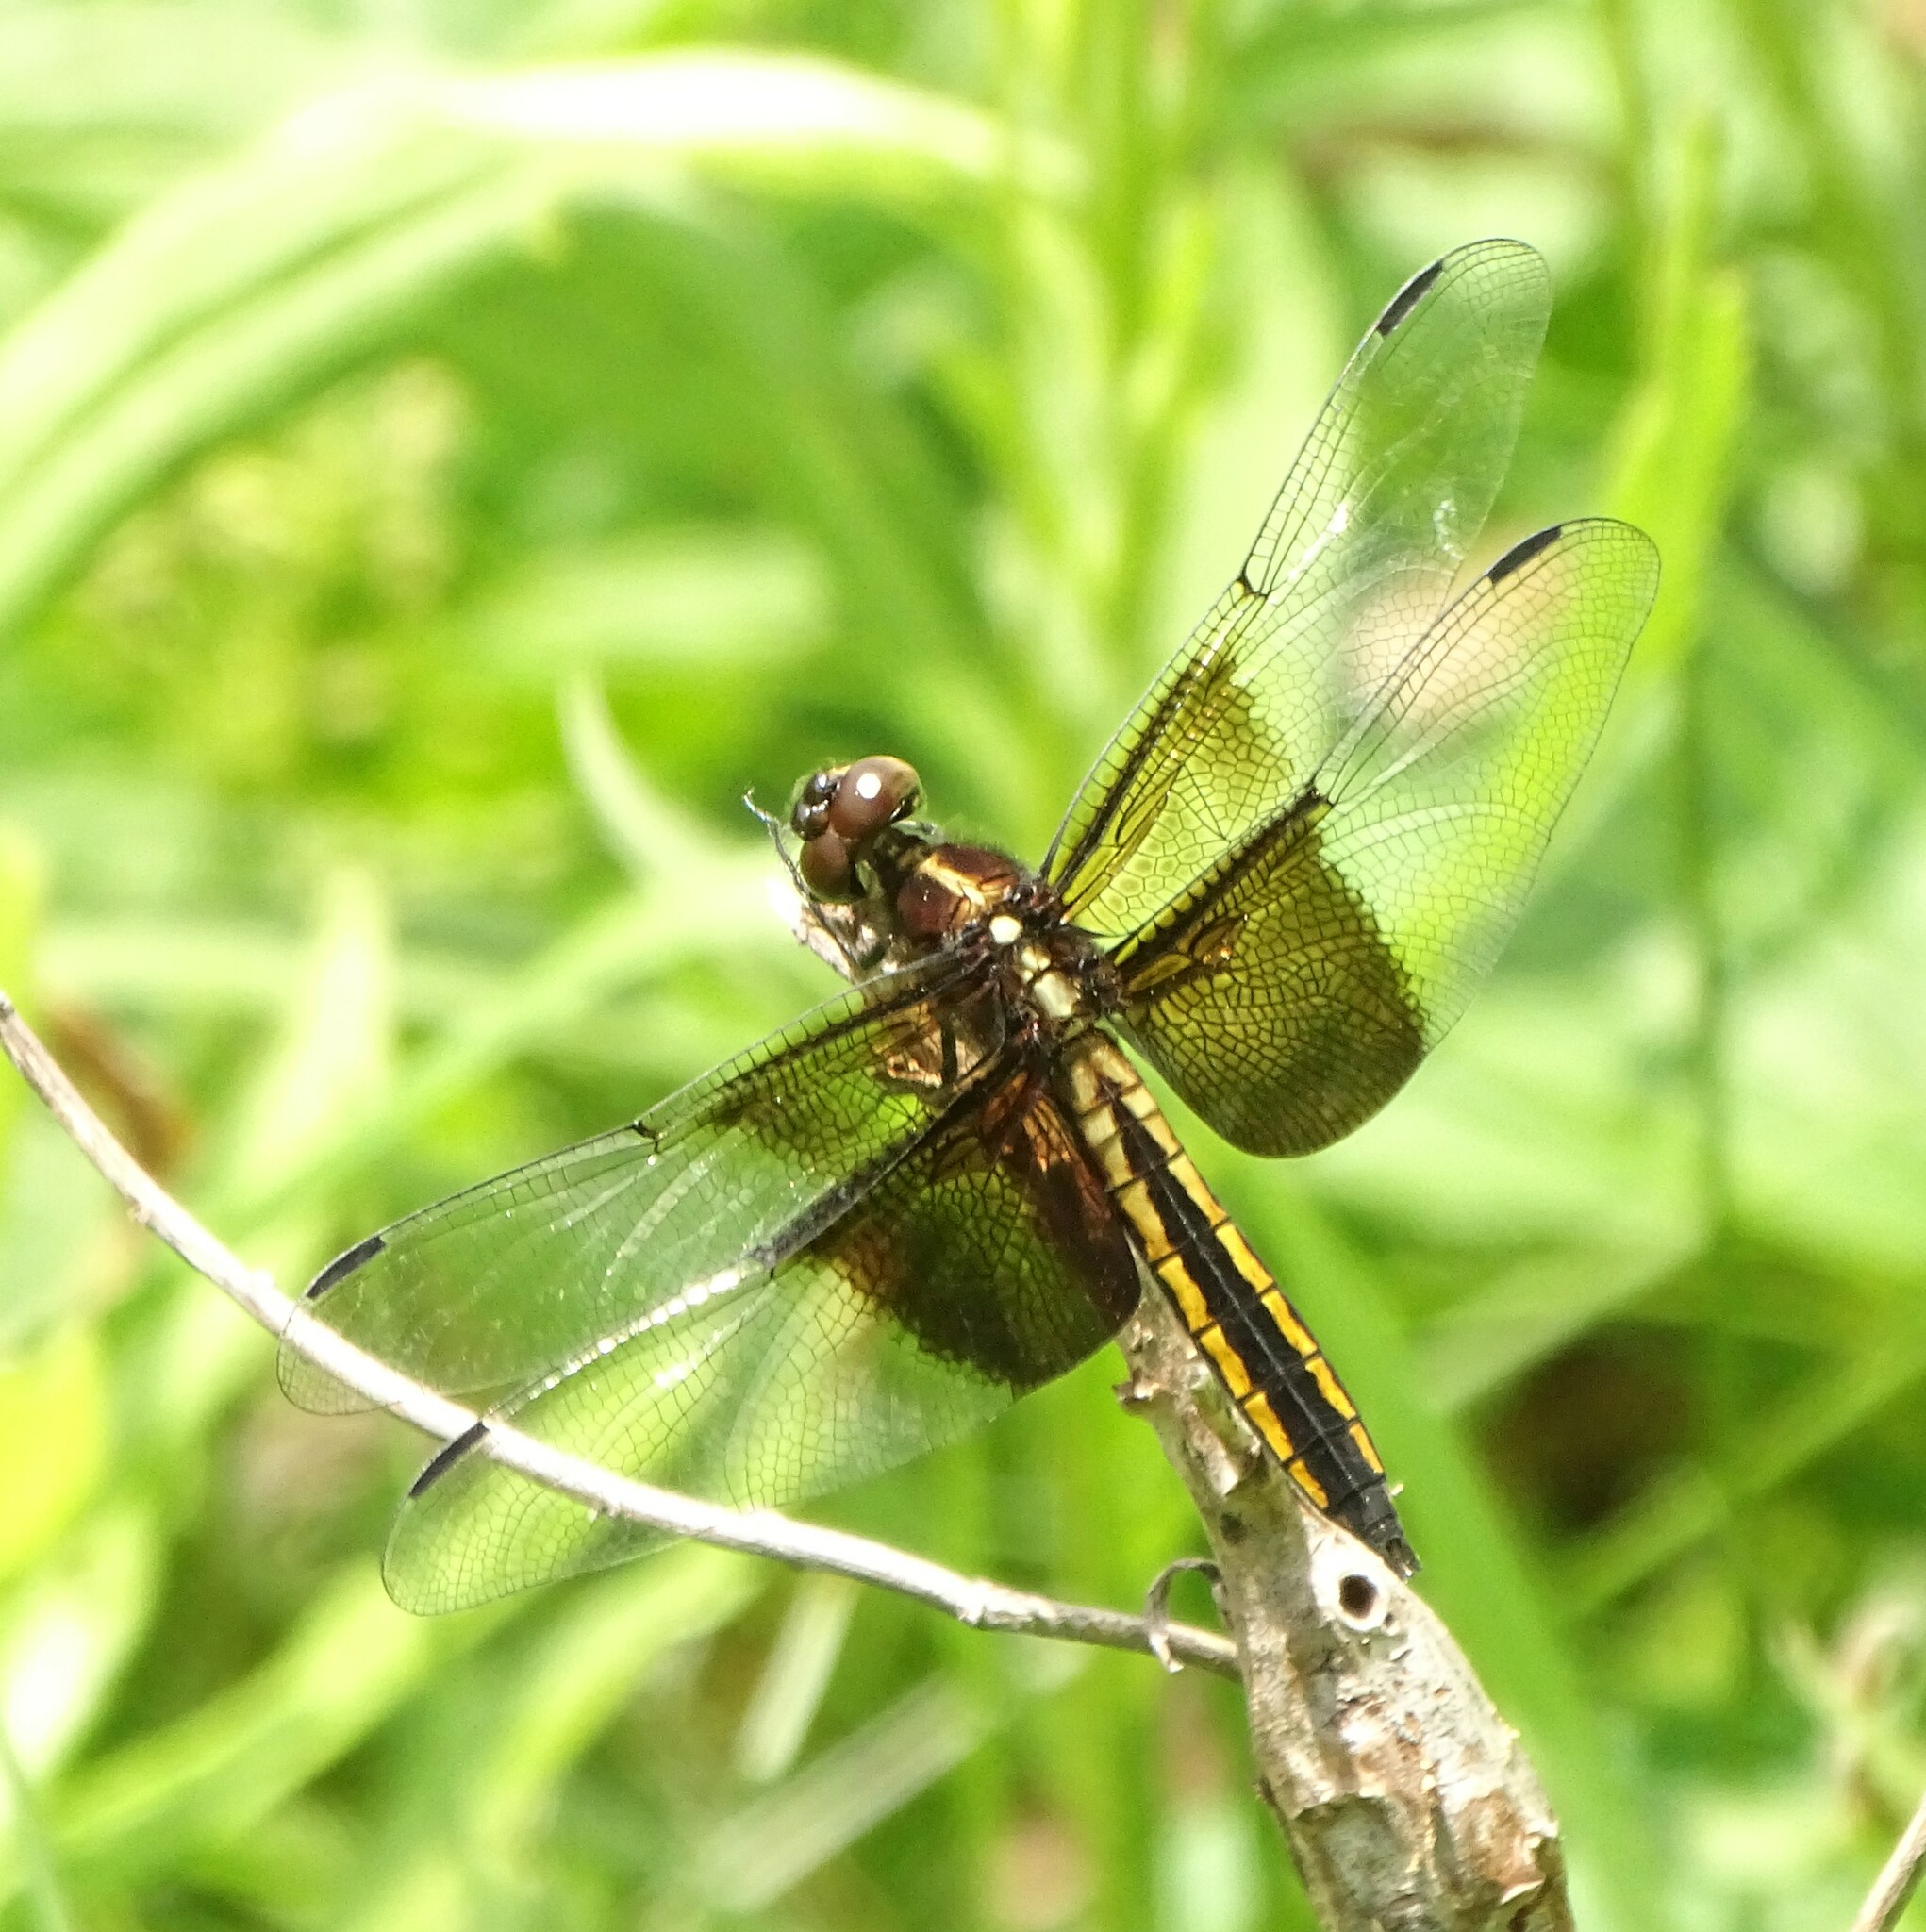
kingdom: Animalia
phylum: Arthropoda
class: Insecta
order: Odonata
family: Libellulidae
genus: Libellula
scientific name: Libellula luctuosa
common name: Widow skimmer
